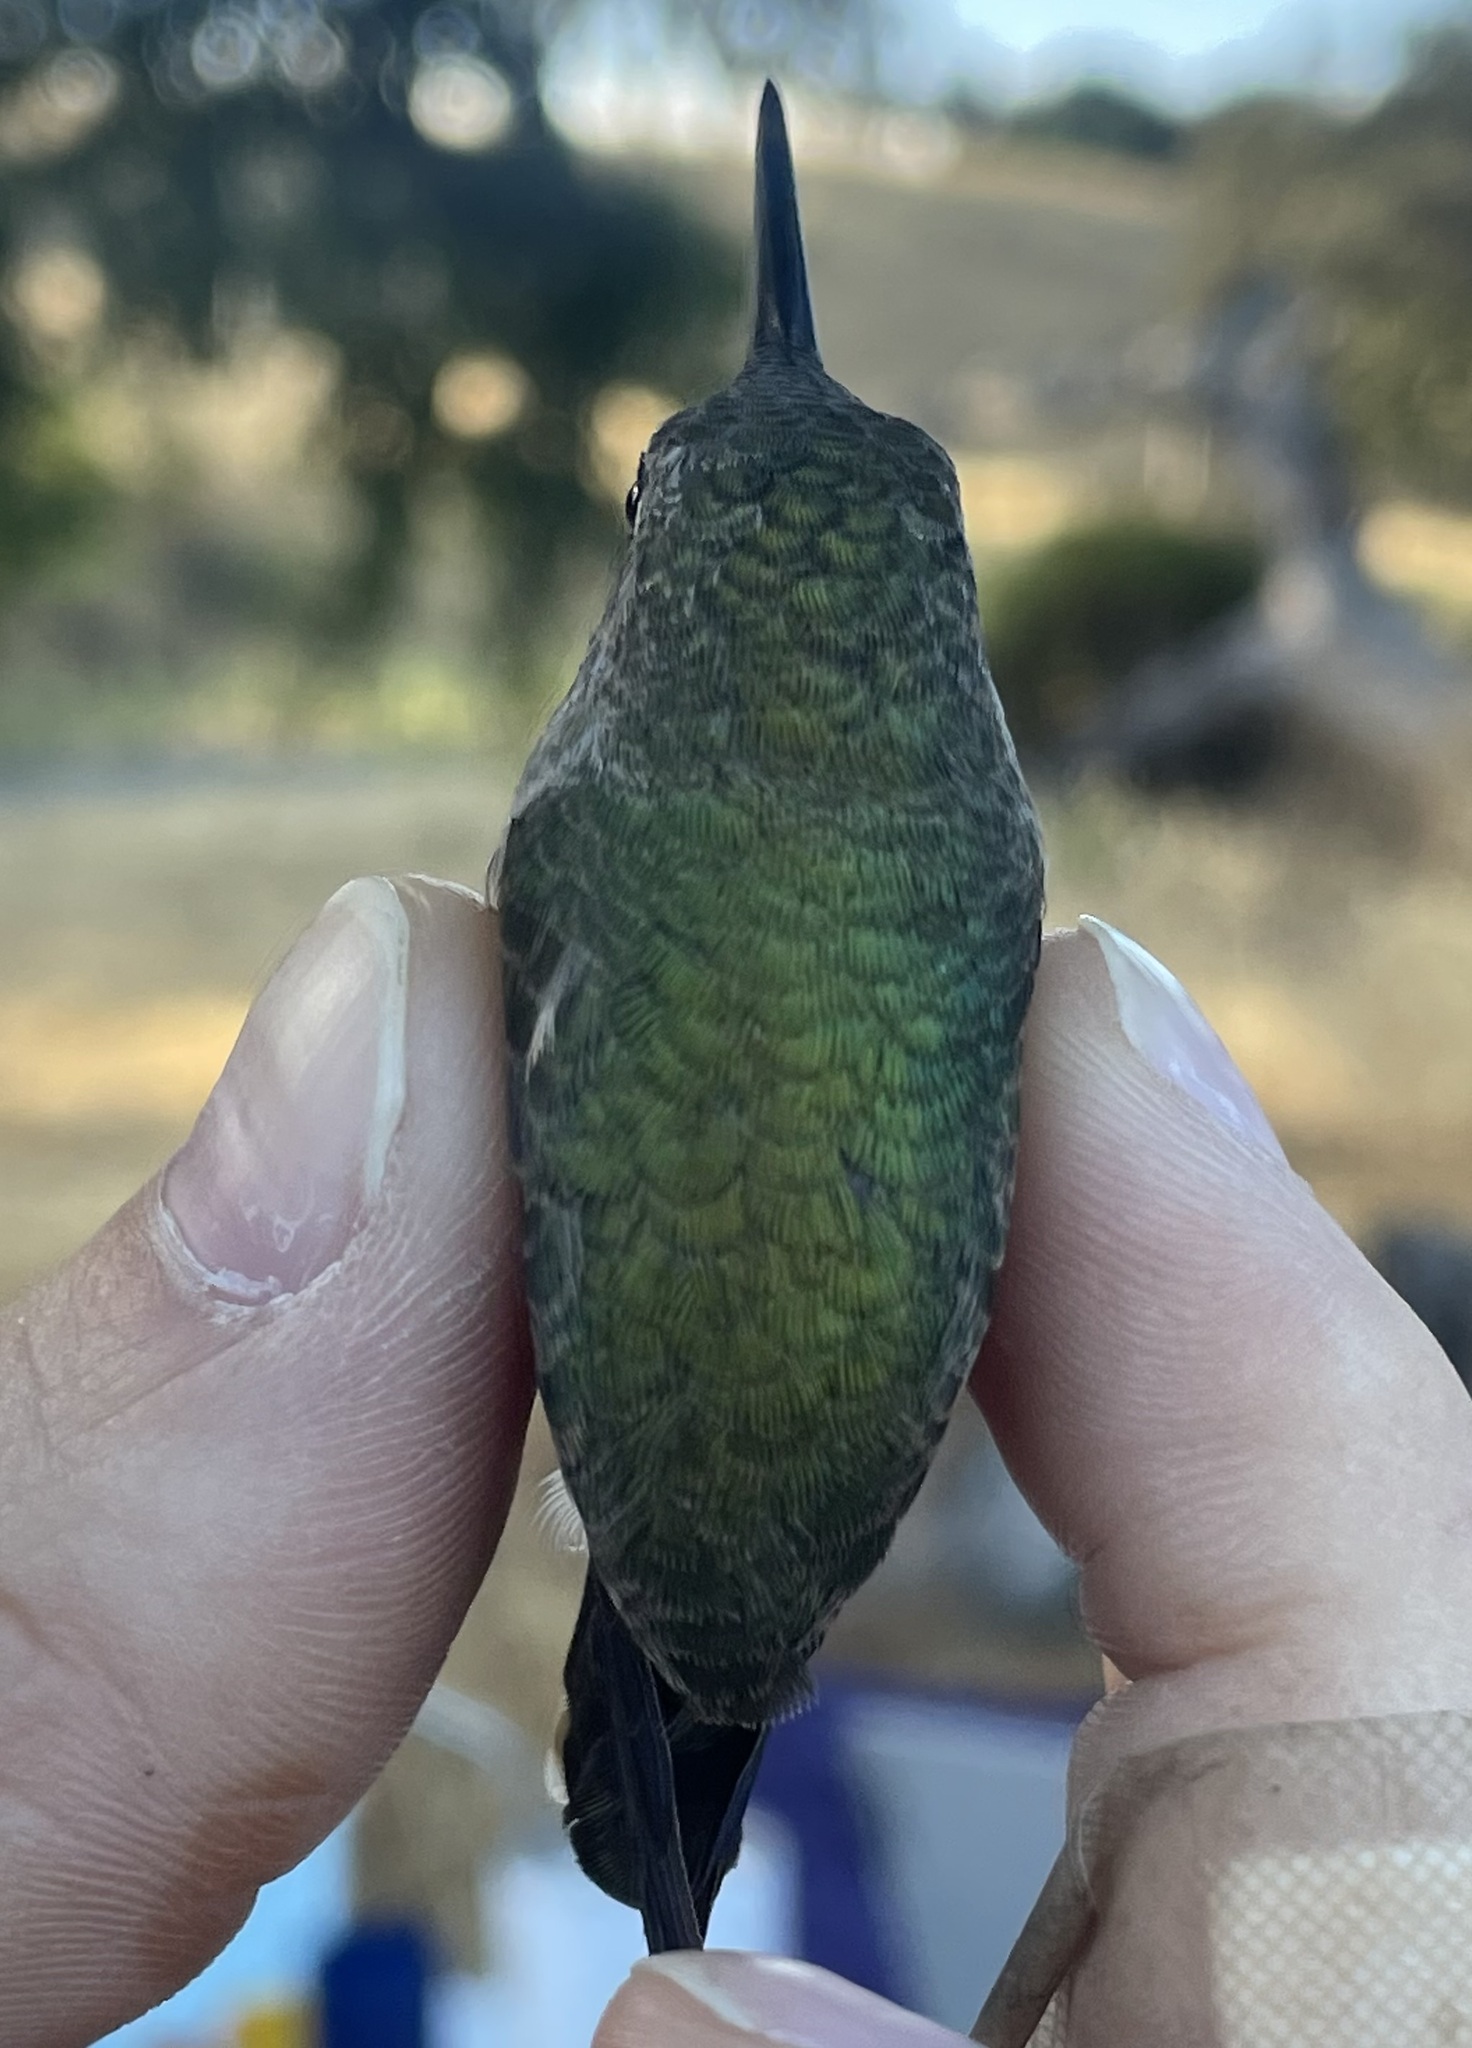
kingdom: Animalia
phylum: Chordata
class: Aves
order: Apodiformes
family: Trochilidae
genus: Archilochus
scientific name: Archilochus alexandri
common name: Black-chinned hummingbird
